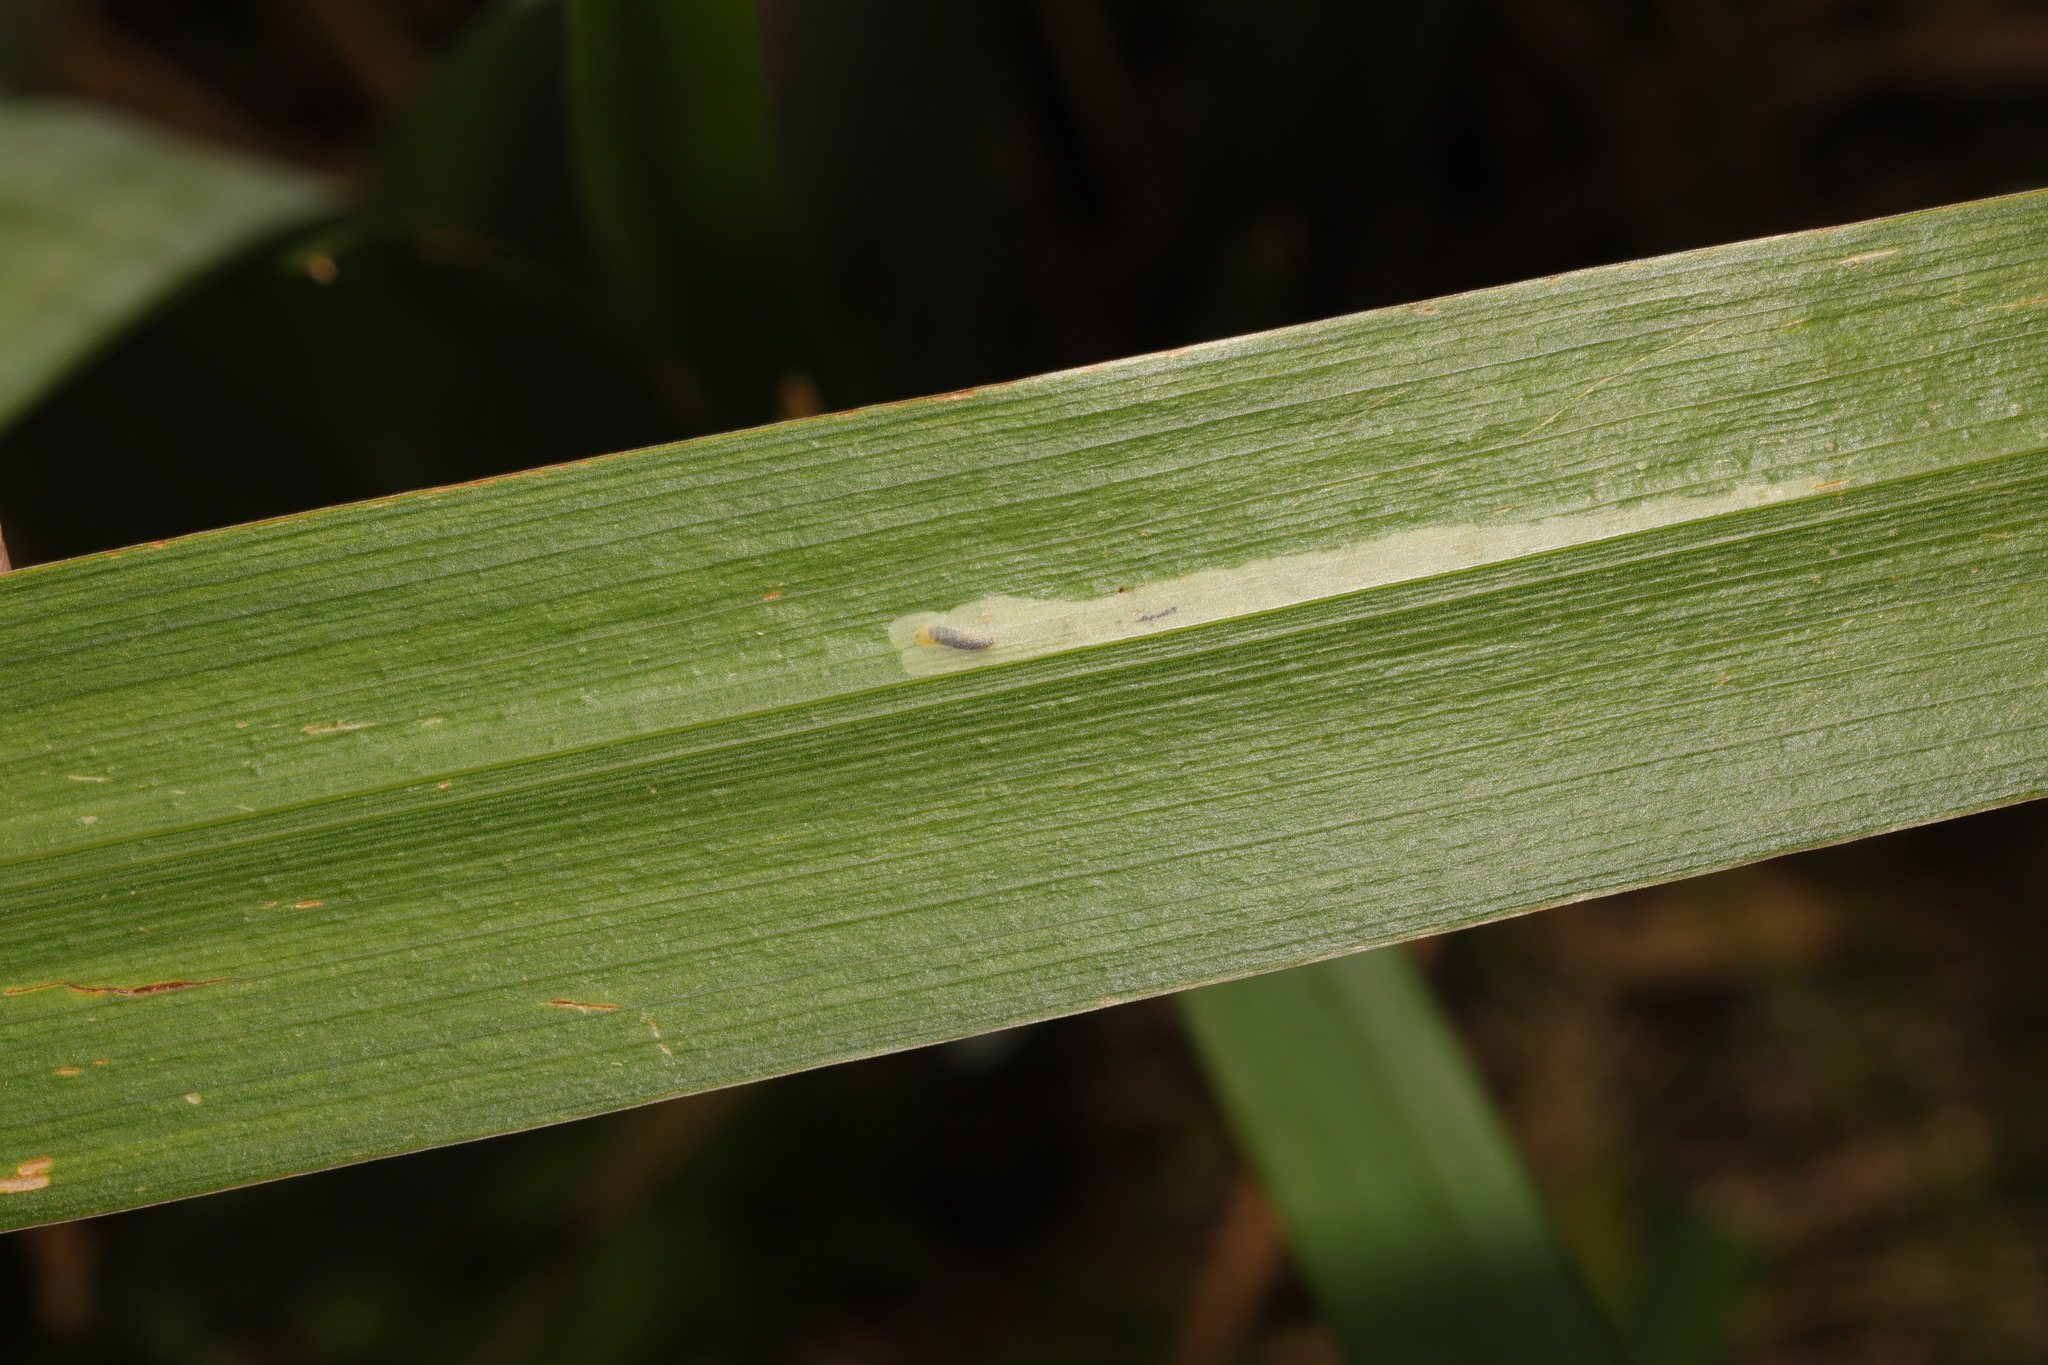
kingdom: Animalia
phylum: Arthropoda
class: Insecta
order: Diptera
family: Agromyzidae
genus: Cerodontha
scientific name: Cerodontha ircos
